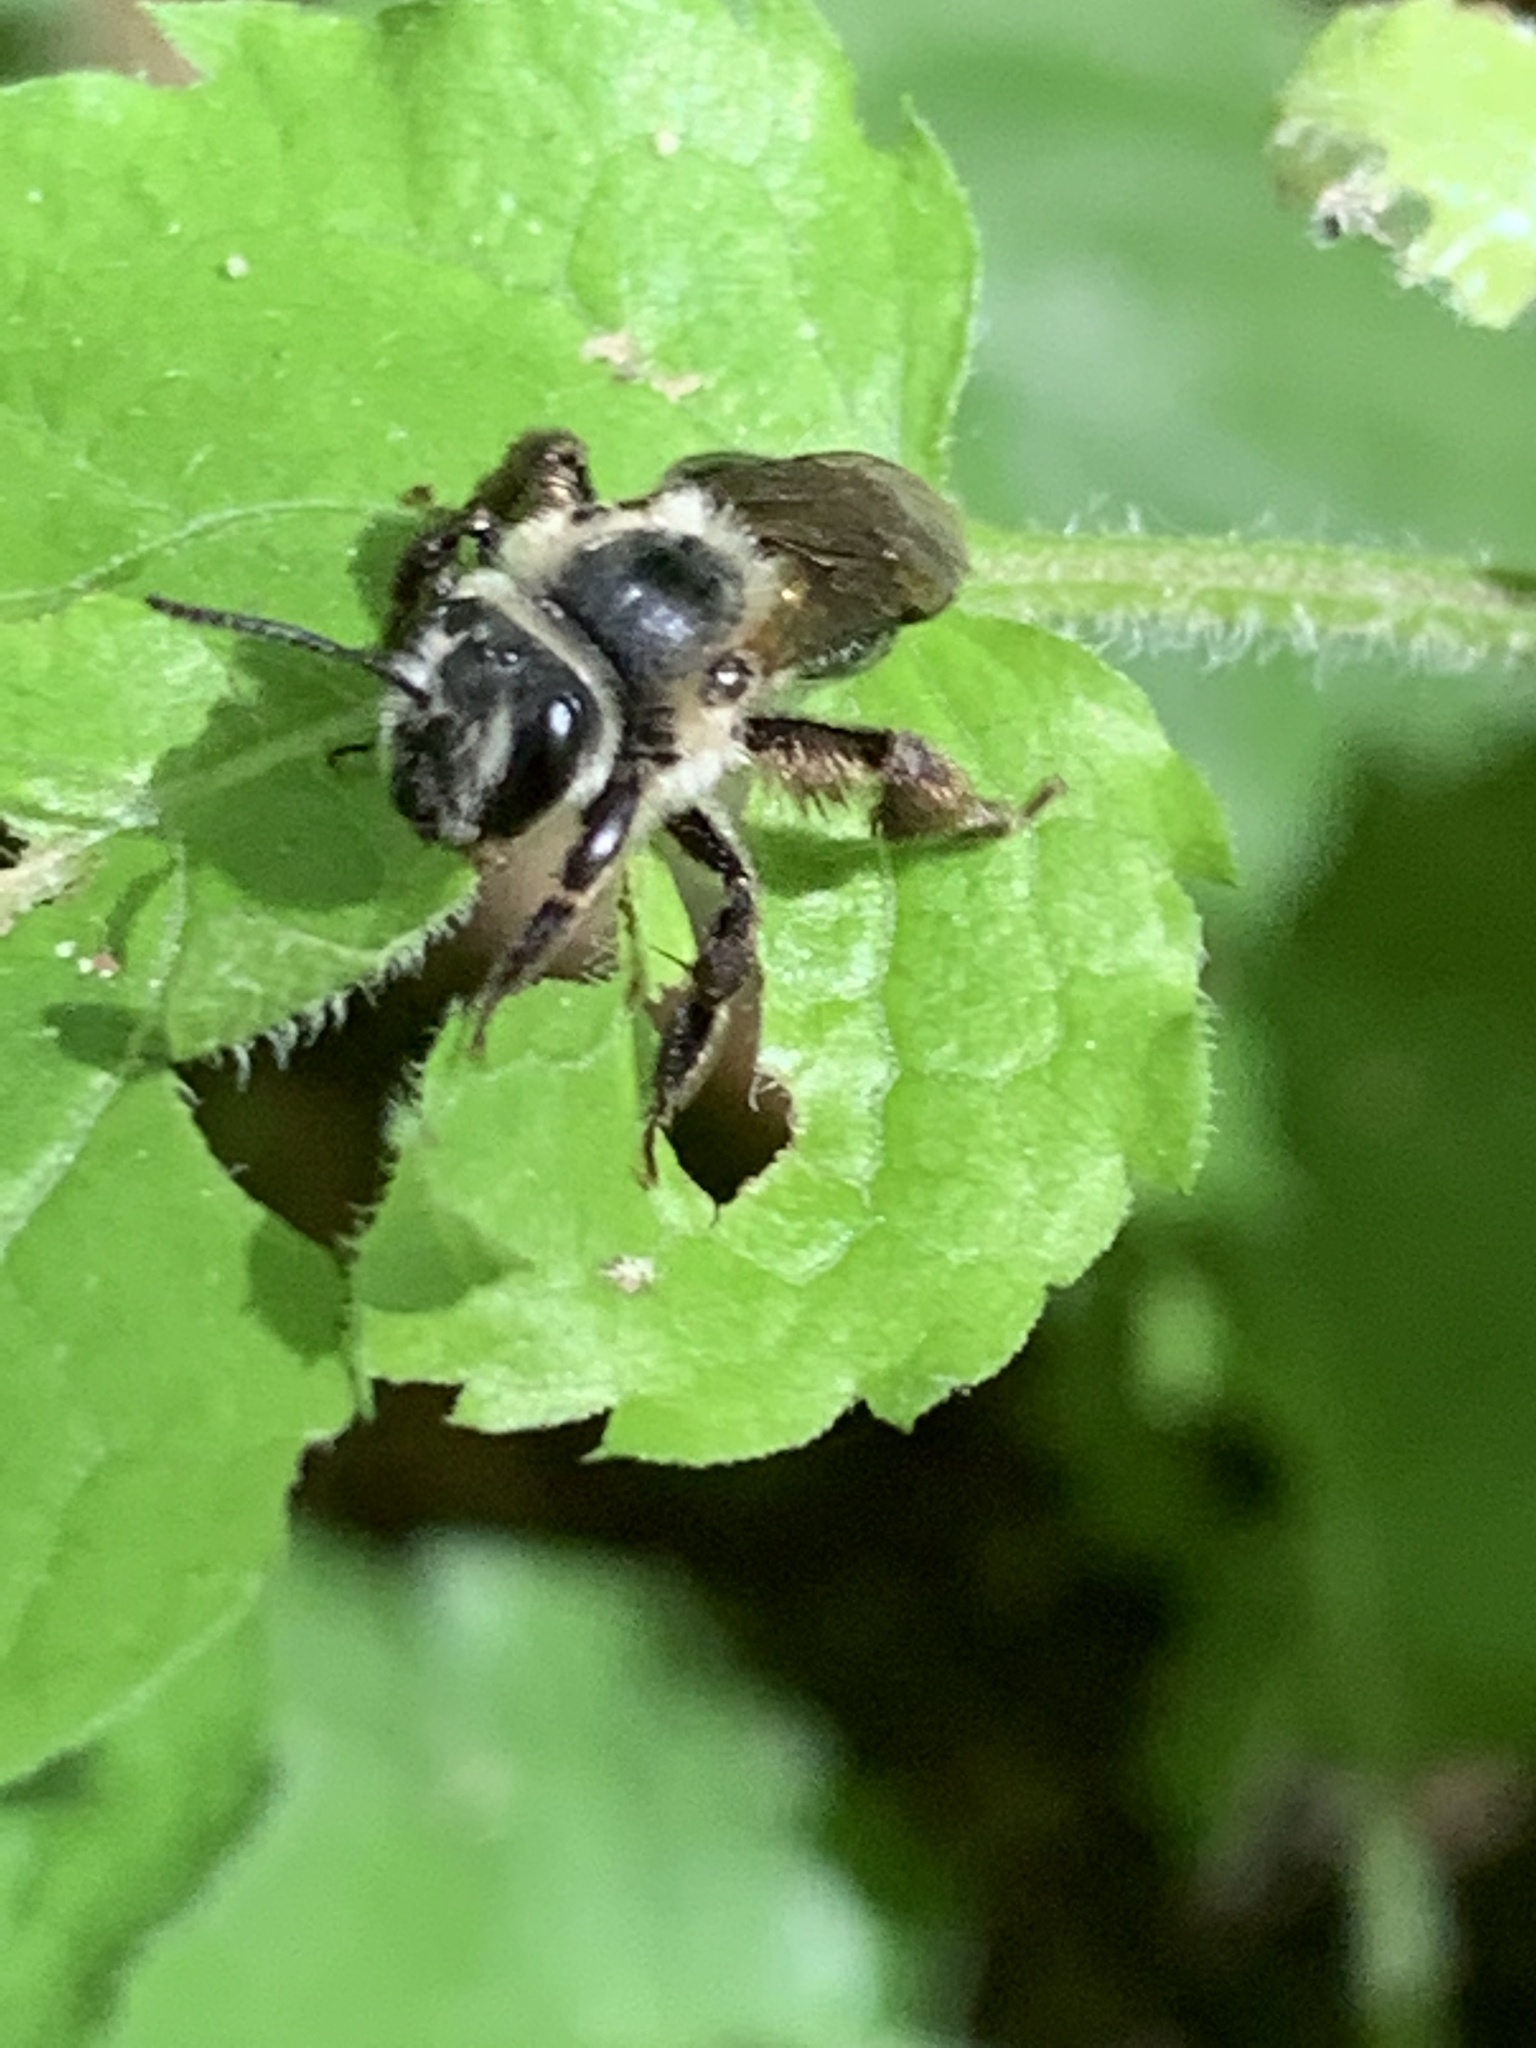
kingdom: Animalia
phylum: Arthropoda
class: Insecta
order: Hymenoptera
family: Andrenidae
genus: Andrena
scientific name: Andrena vicina
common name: Neighborly mining bee
